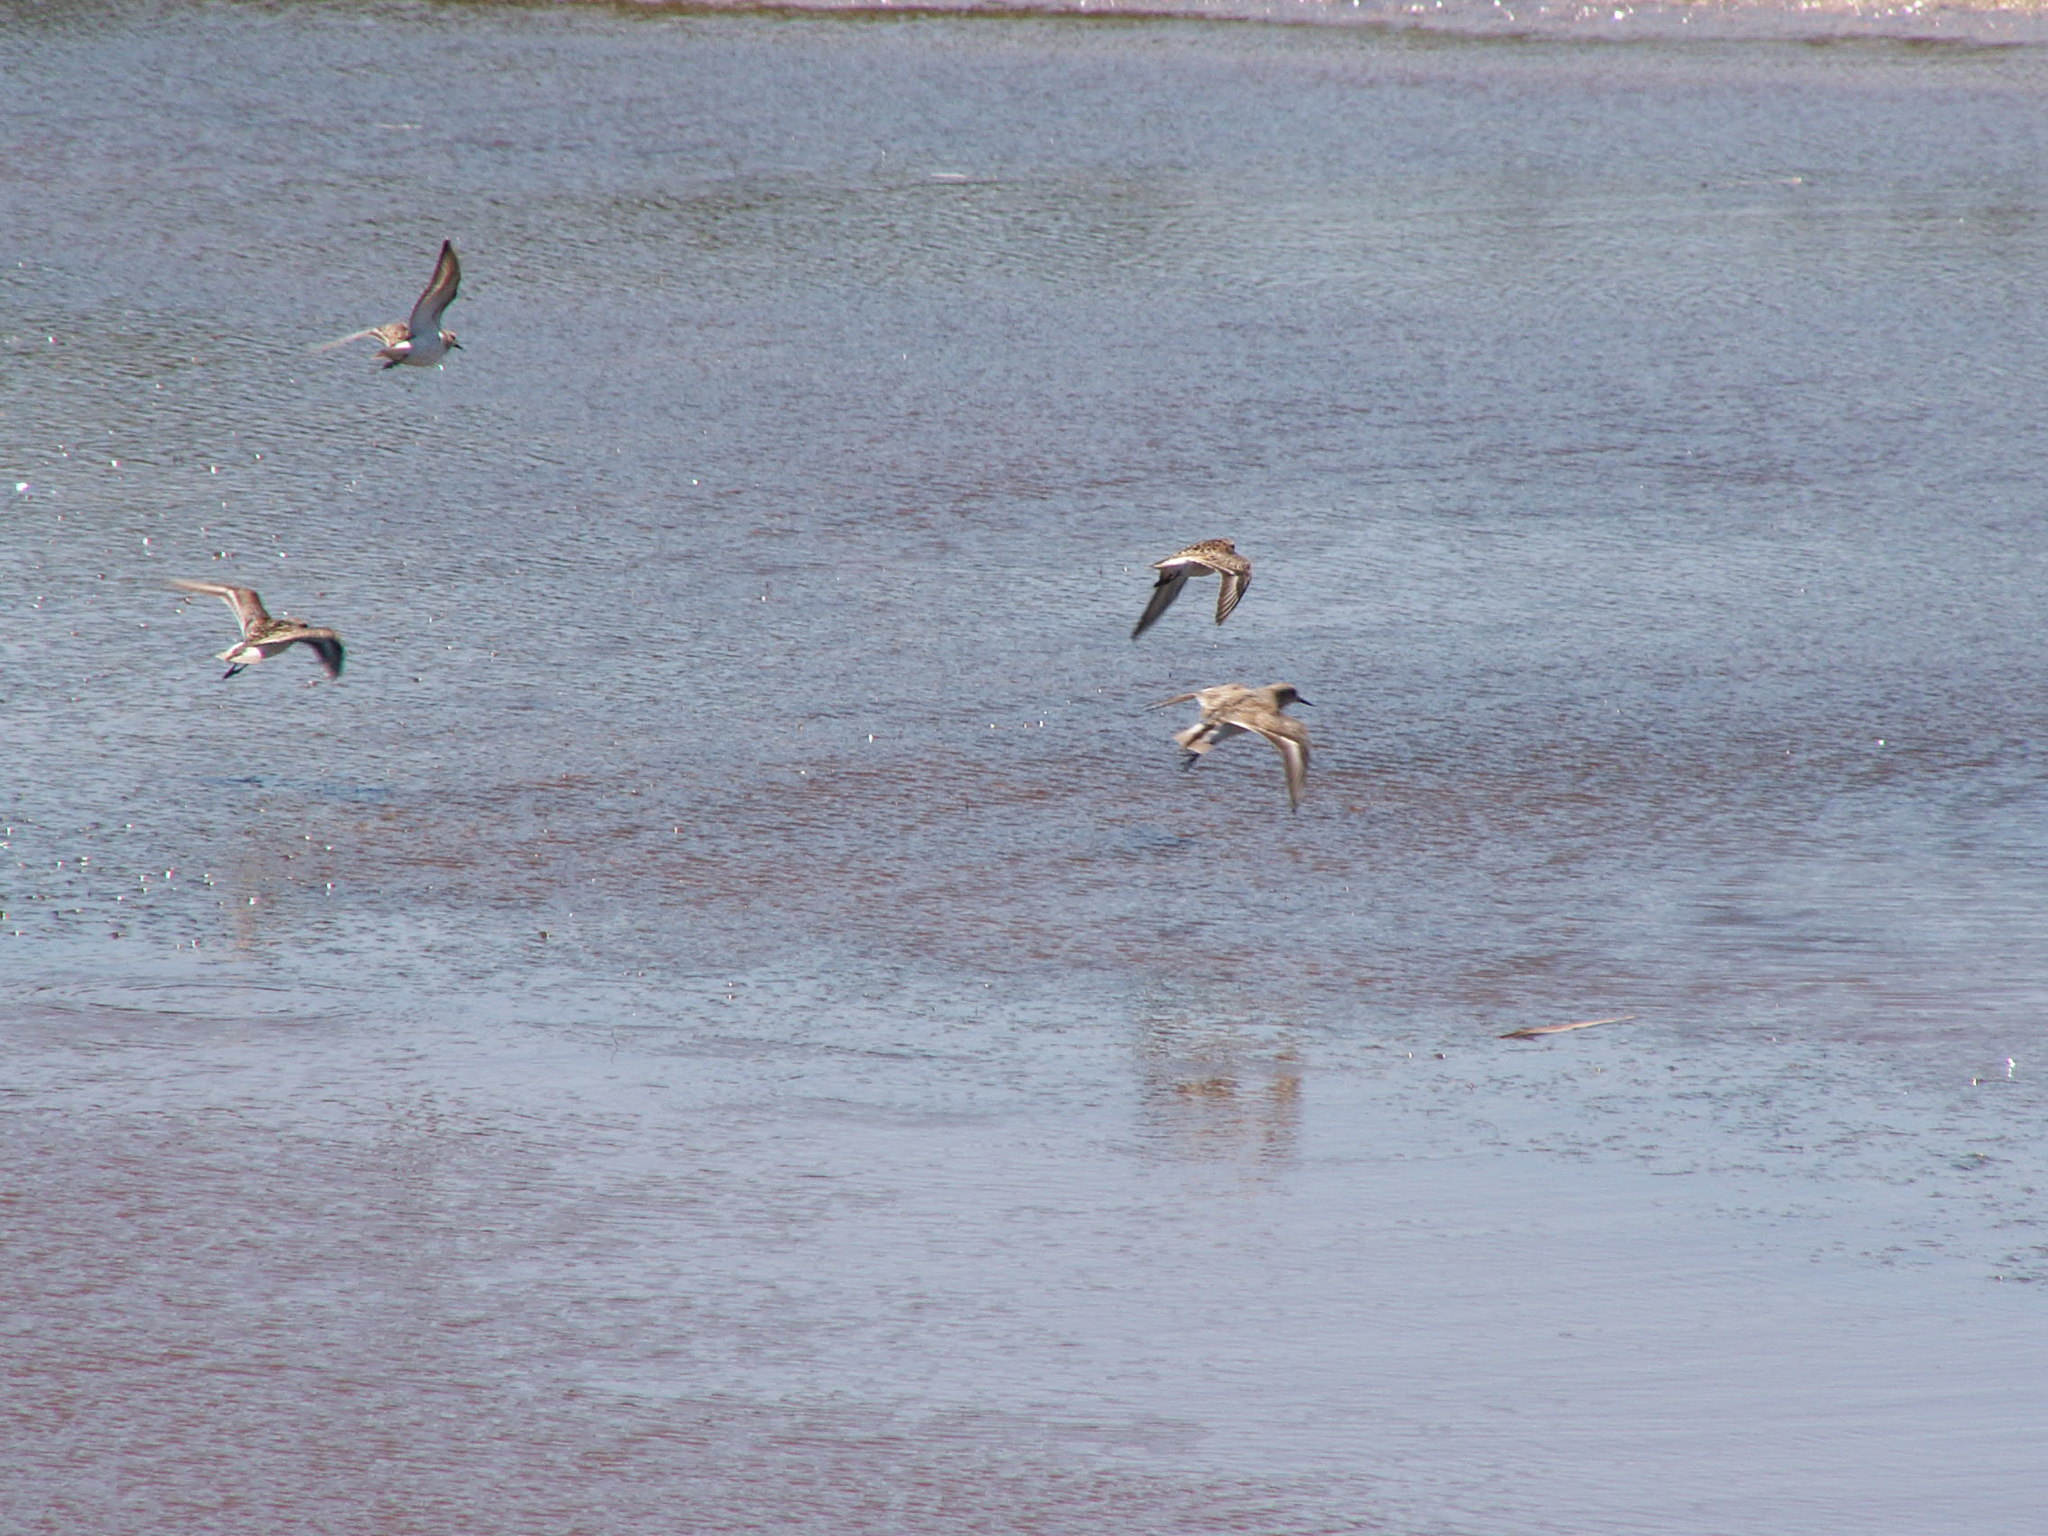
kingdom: Animalia
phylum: Chordata
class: Aves
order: Charadriiformes
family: Scolopacidae
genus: Calidris
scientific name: Calidris minuta
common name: Little stint
